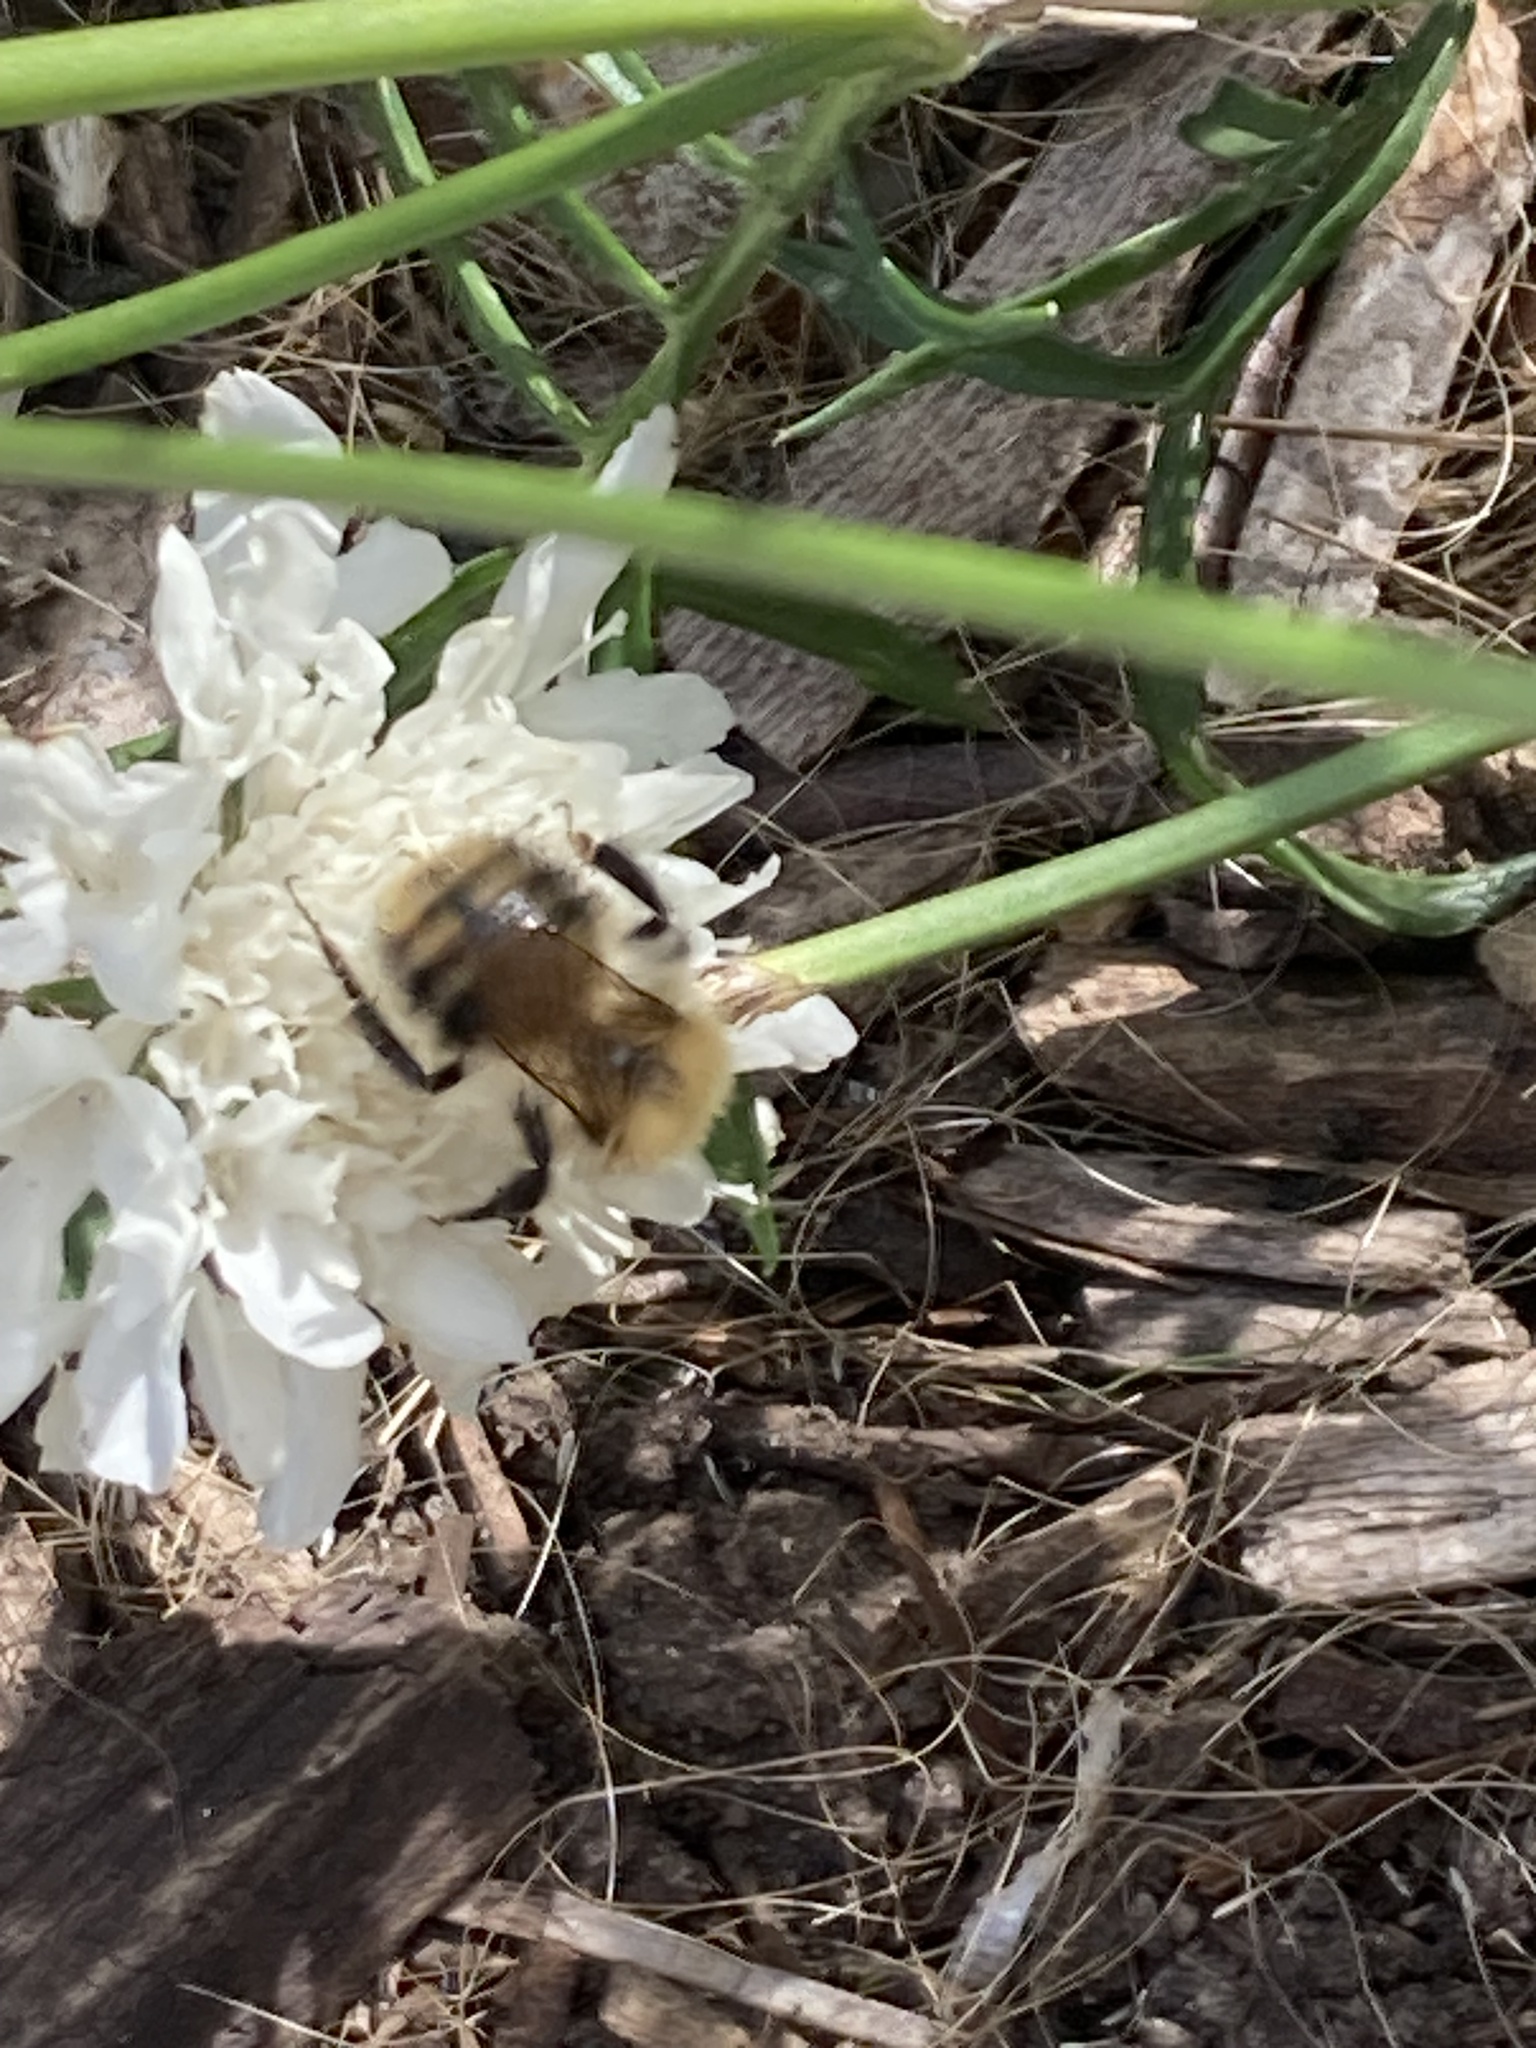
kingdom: Animalia
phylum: Arthropoda
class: Insecta
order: Hymenoptera
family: Apidae
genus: Bombus
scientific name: Bombus pascuorum
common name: Common carder bee
